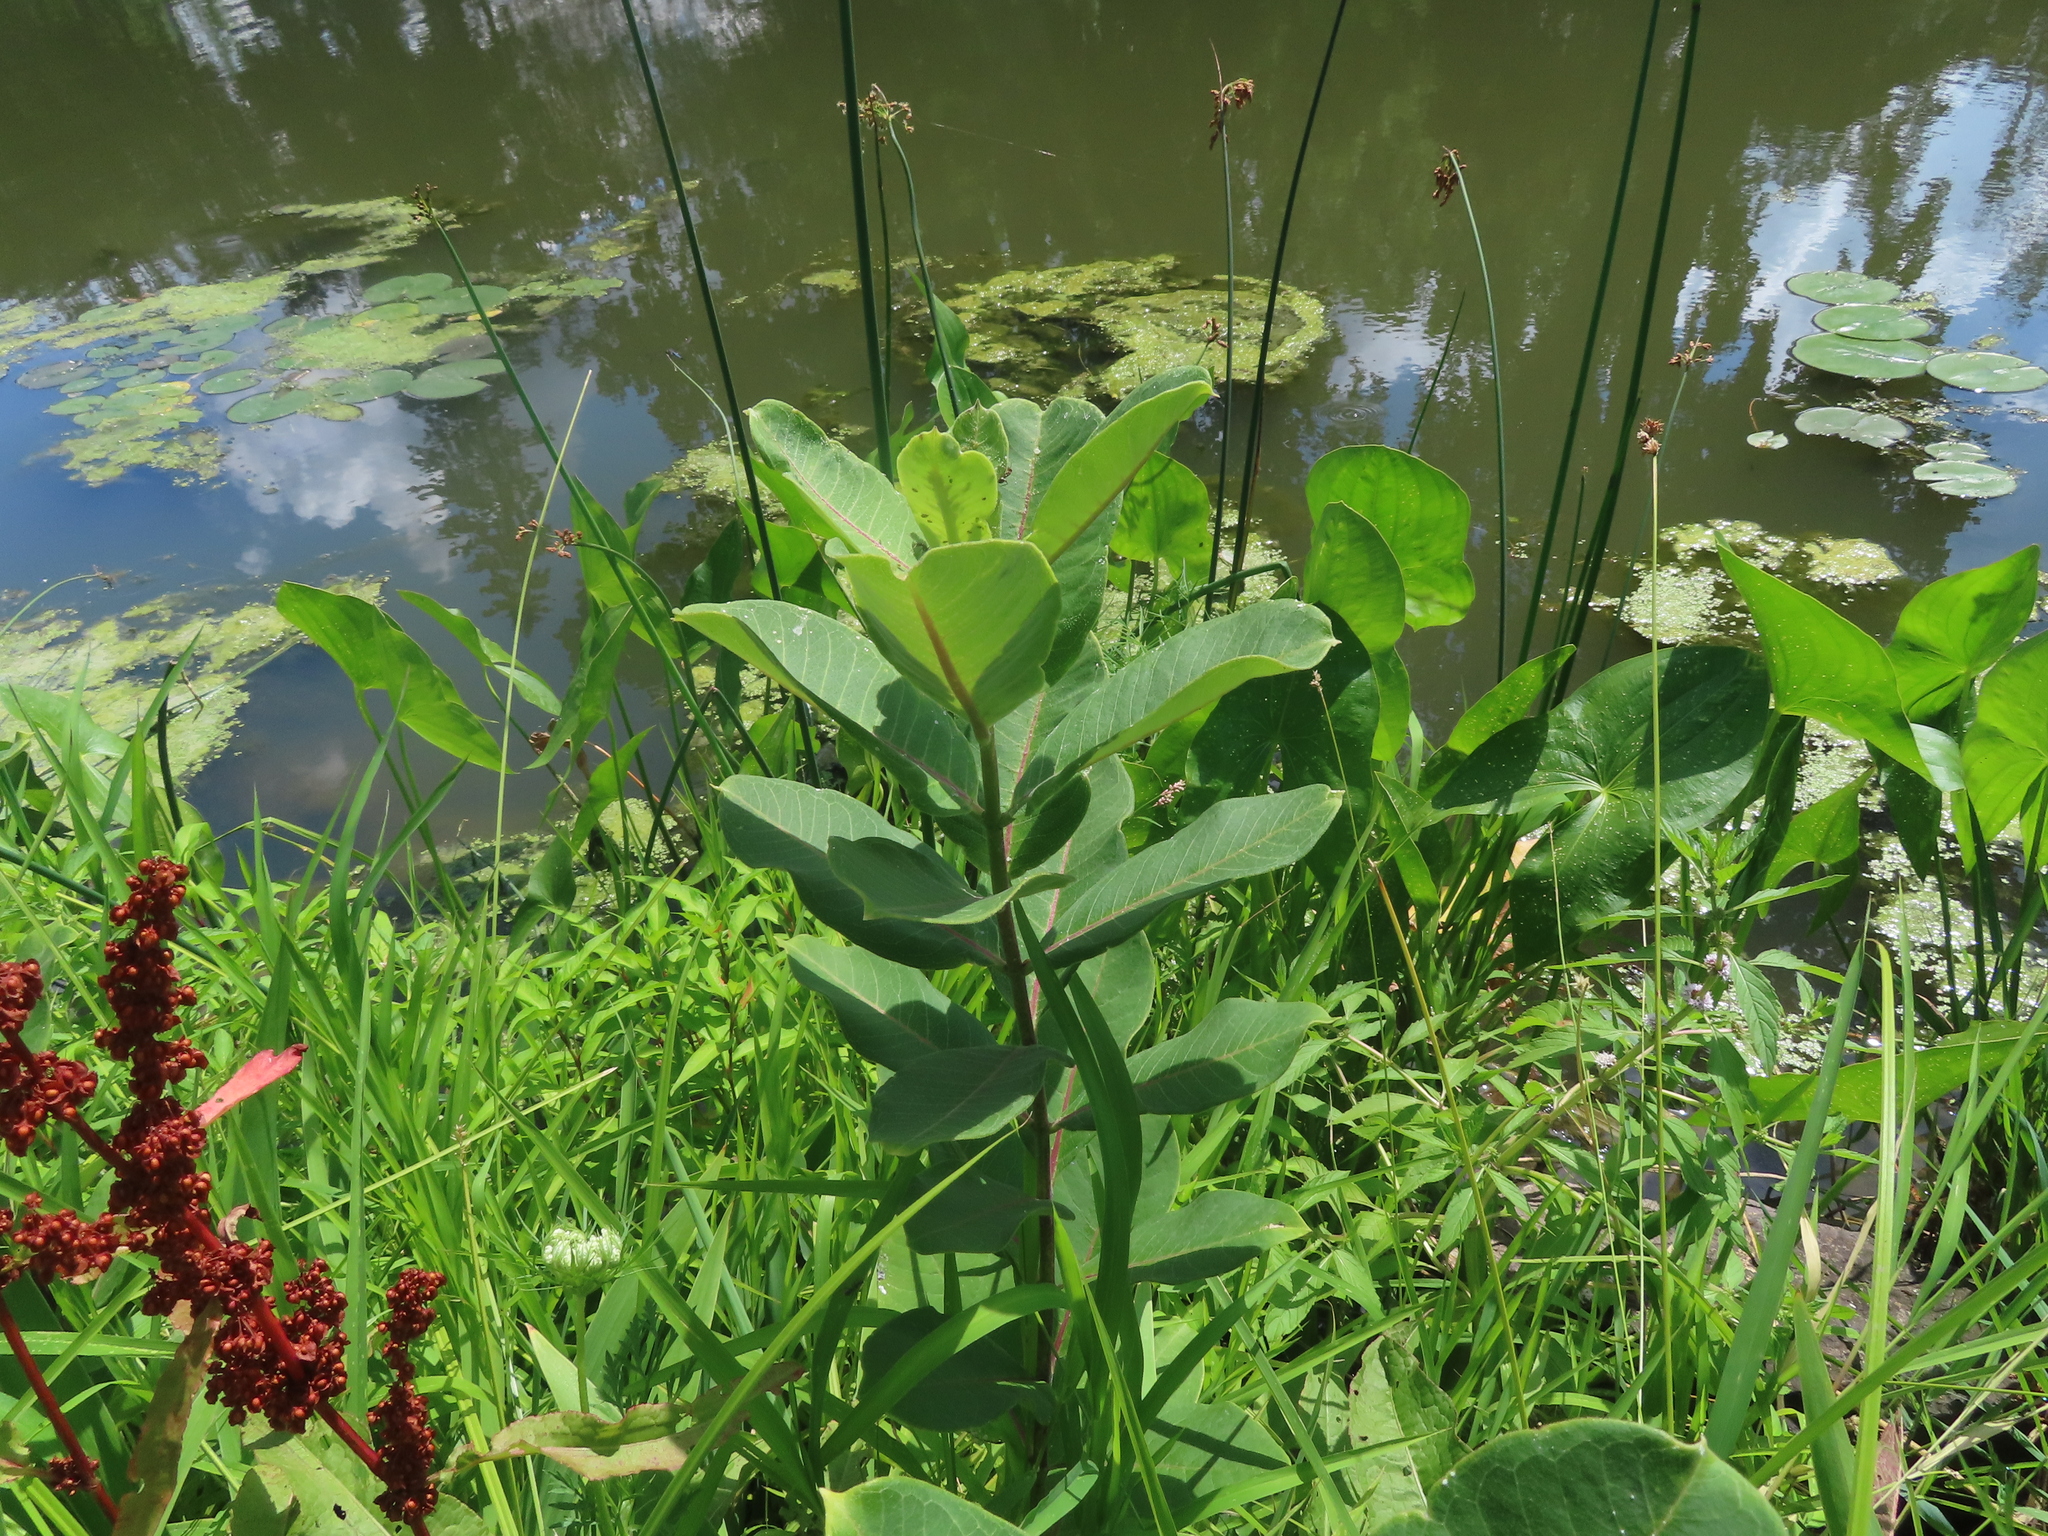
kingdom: Plantae
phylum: Tracheophyta
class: Magnoliopsida
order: Gentianales
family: Apocynaceae
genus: Asclepias
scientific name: Asclepias syriaca
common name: Common milkweed
